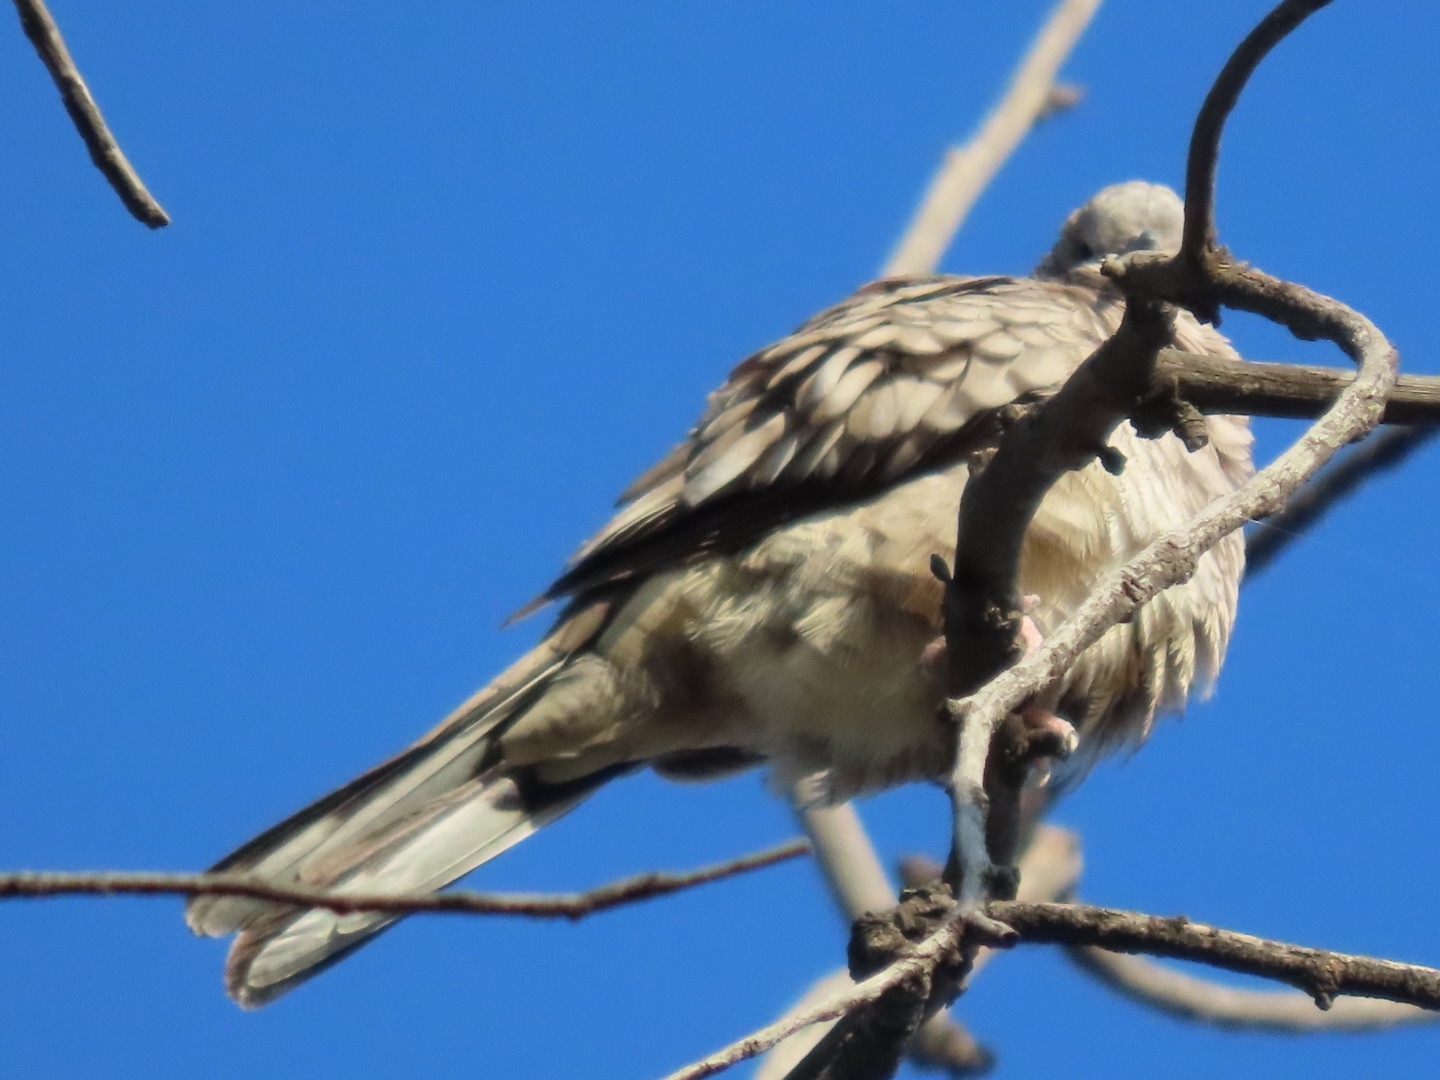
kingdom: Animalia
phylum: Chordata
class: Aves
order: Columbiformes
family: Columbidae
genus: Columbina
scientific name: Columbina inca
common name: Inca dove
